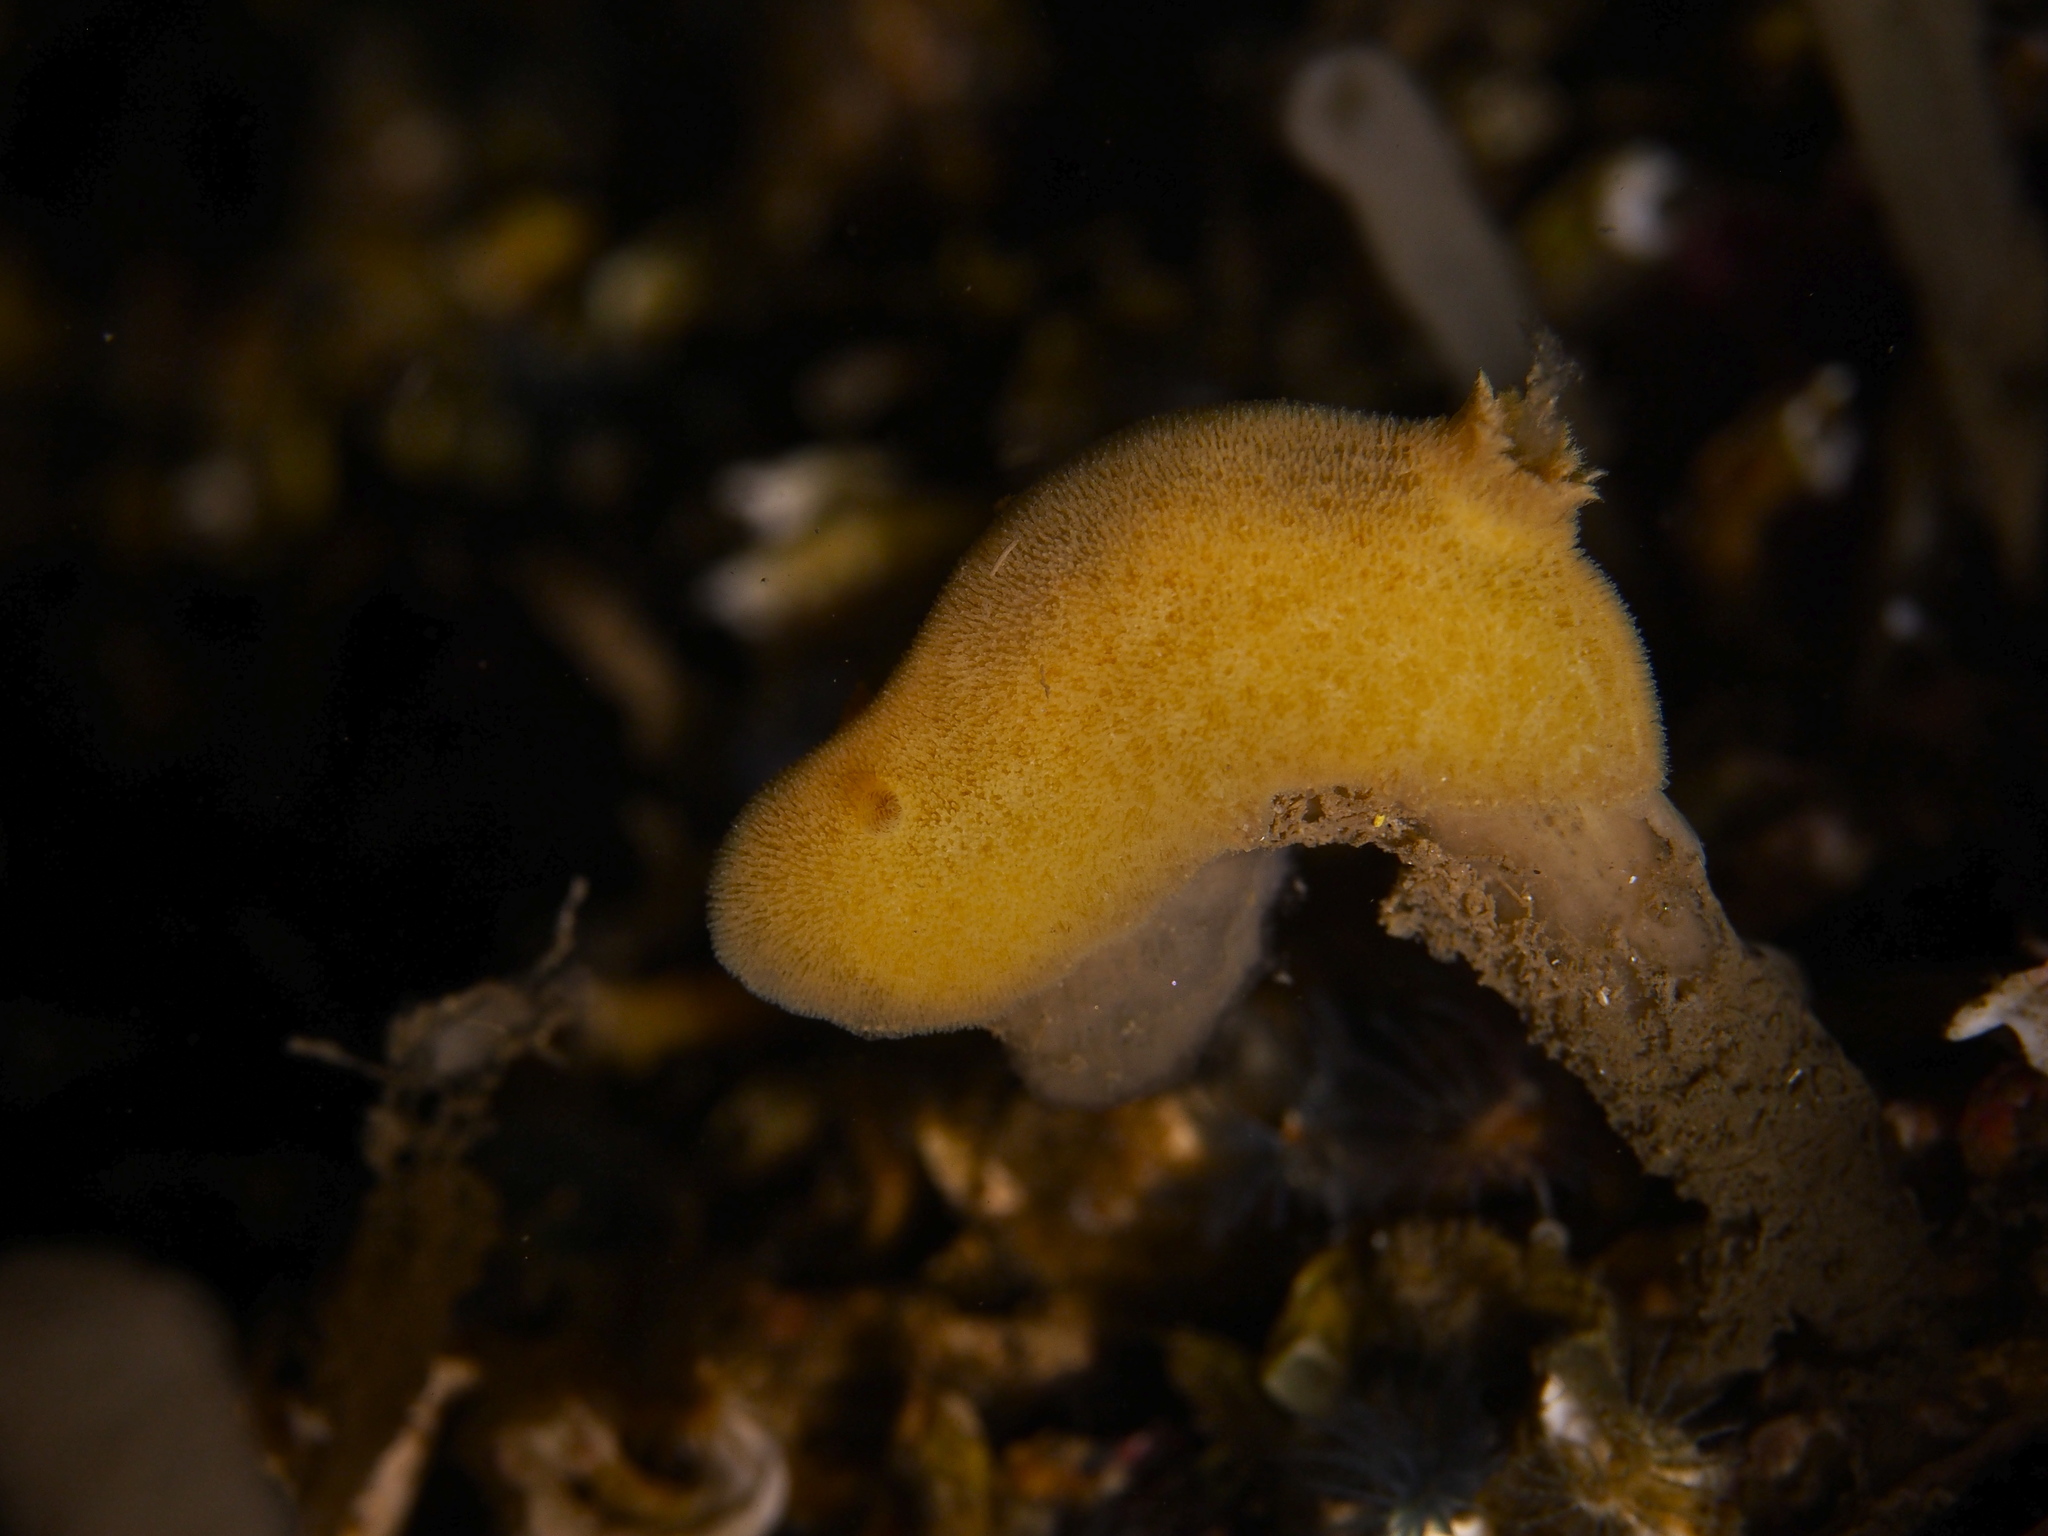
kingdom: Animalia
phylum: Mollusca
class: Gastropoda
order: Nudibranchia
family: Discodorididae
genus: Jorunna
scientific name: Jorunna tomentosa
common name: Grey sea slug
